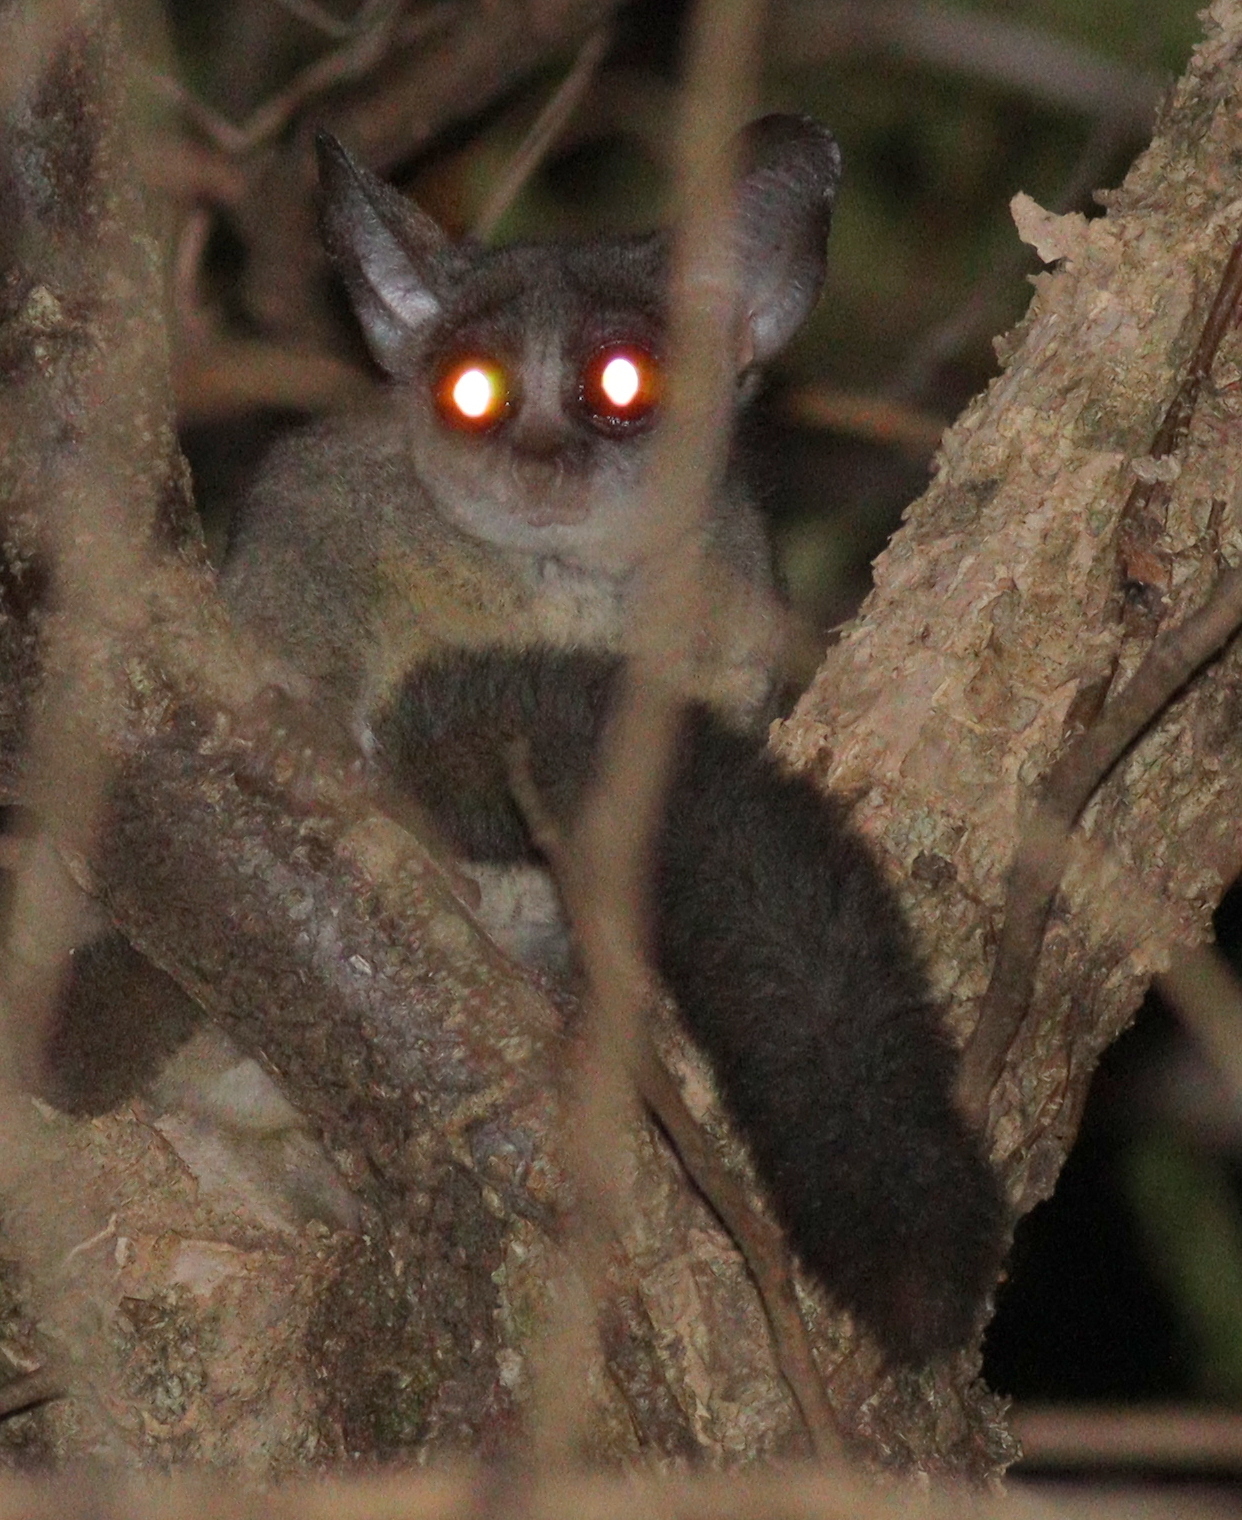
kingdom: Animalia
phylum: Chordata
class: Mammalia
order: Primates
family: Galagidae
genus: Galago
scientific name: Galago senegalensis
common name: Senegal bushbaby
